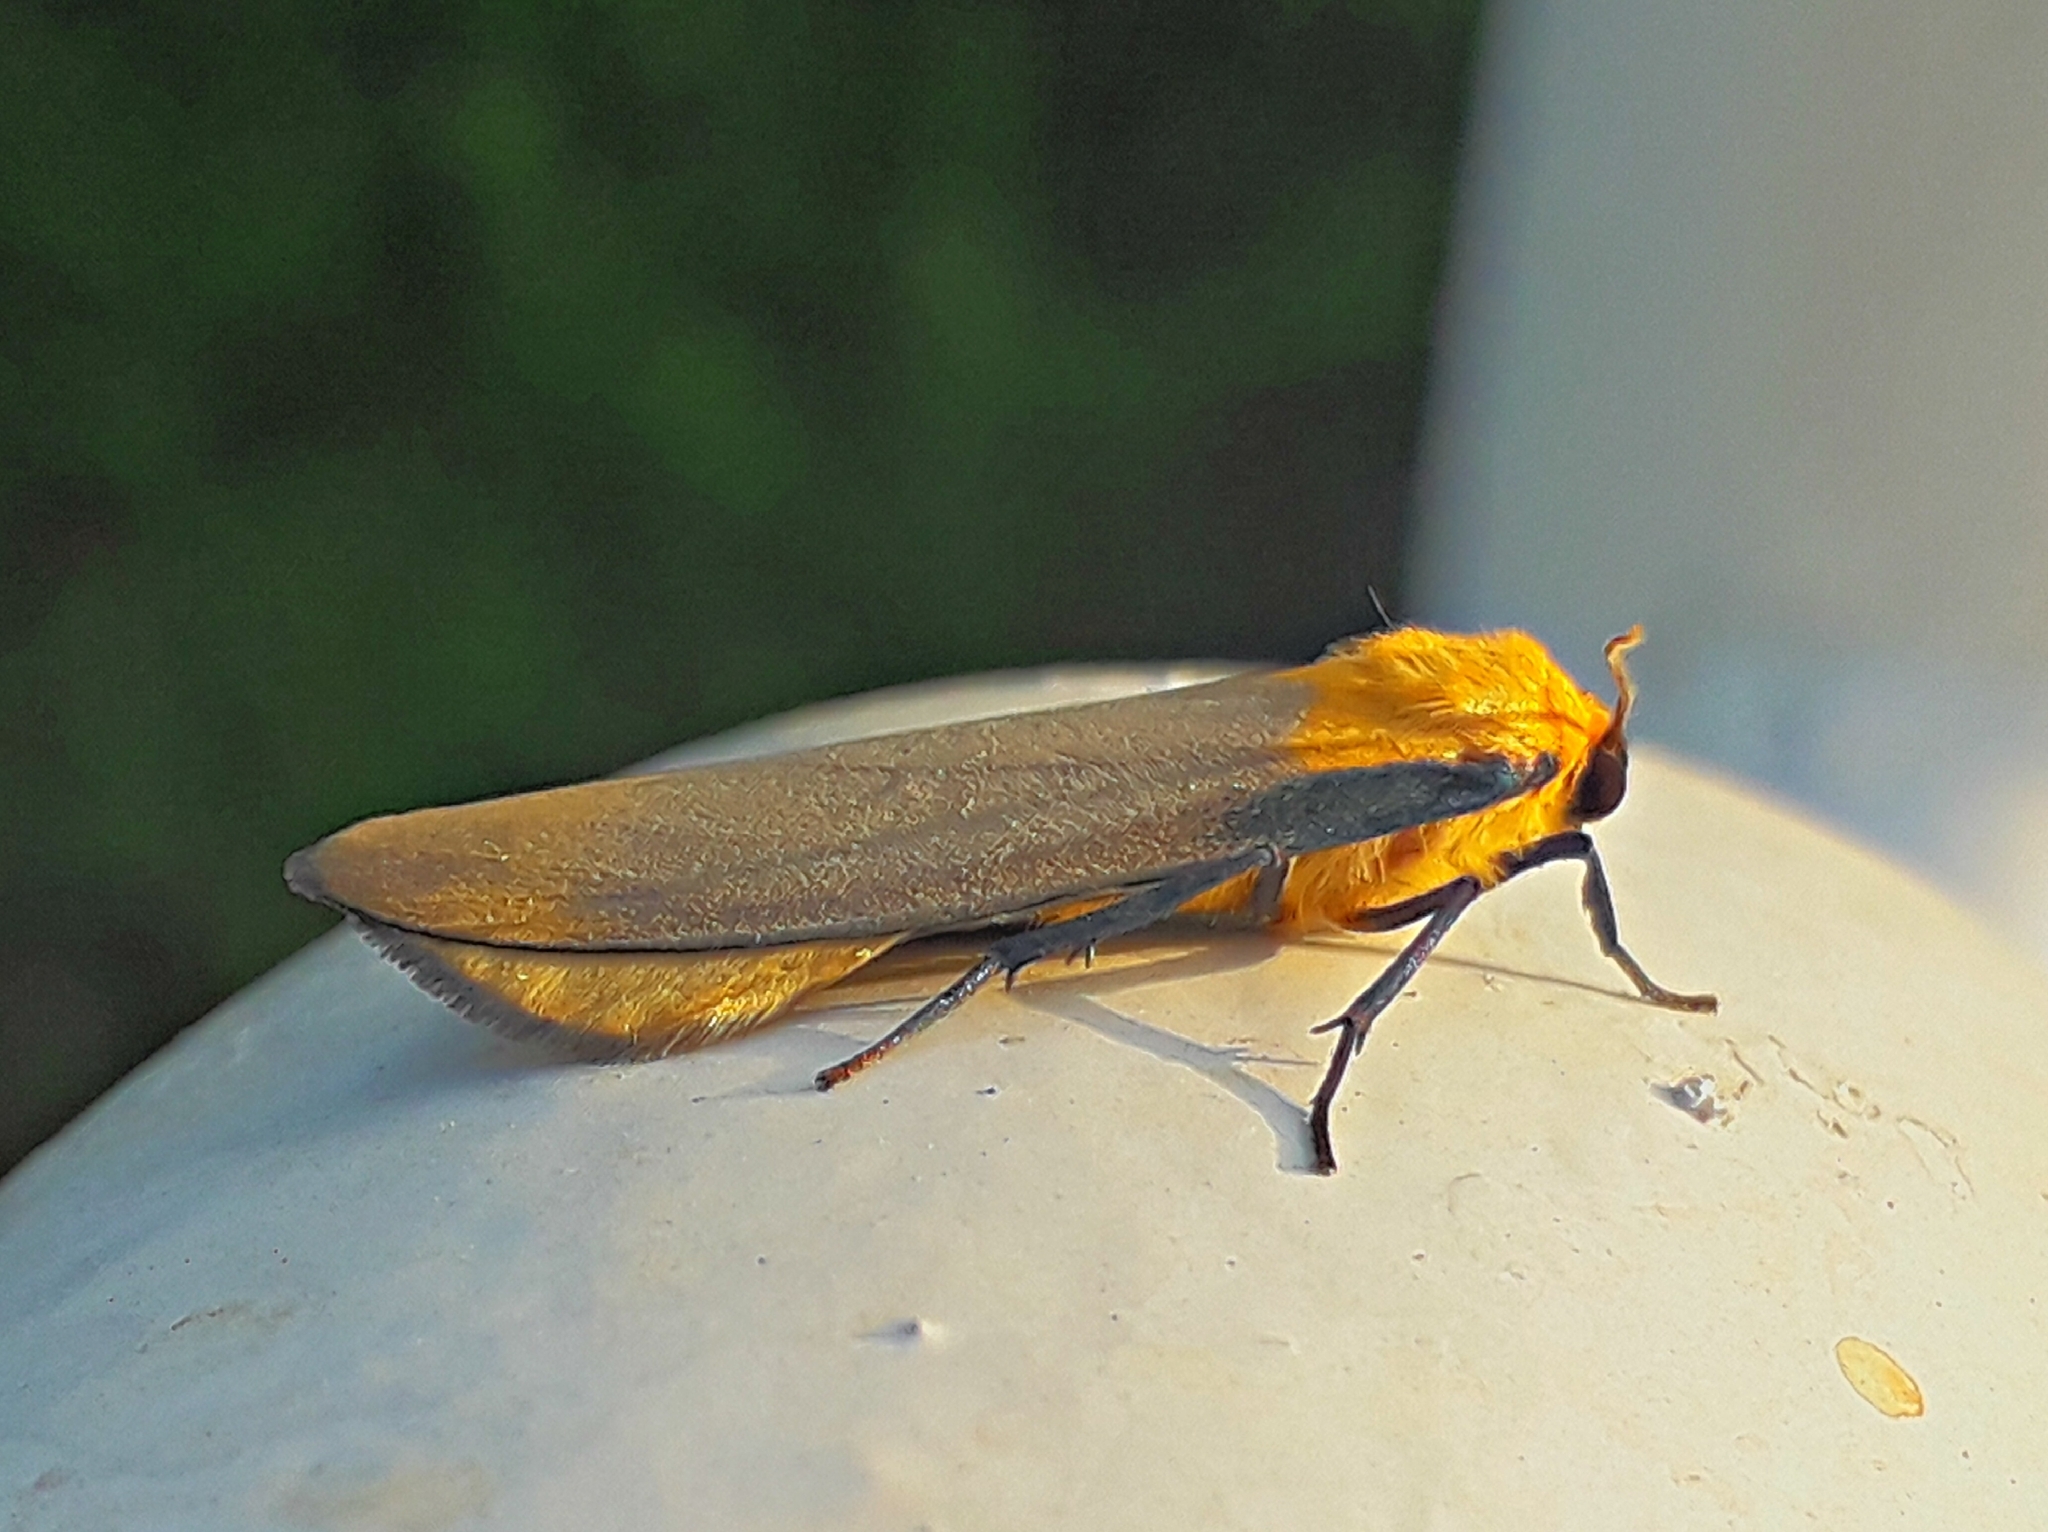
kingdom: Animalia
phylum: Arthropoda
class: Insecta
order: Lepidoptera
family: Erebidae
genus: Lithosia
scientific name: Lithosia quadra
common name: Four-spotted footman
